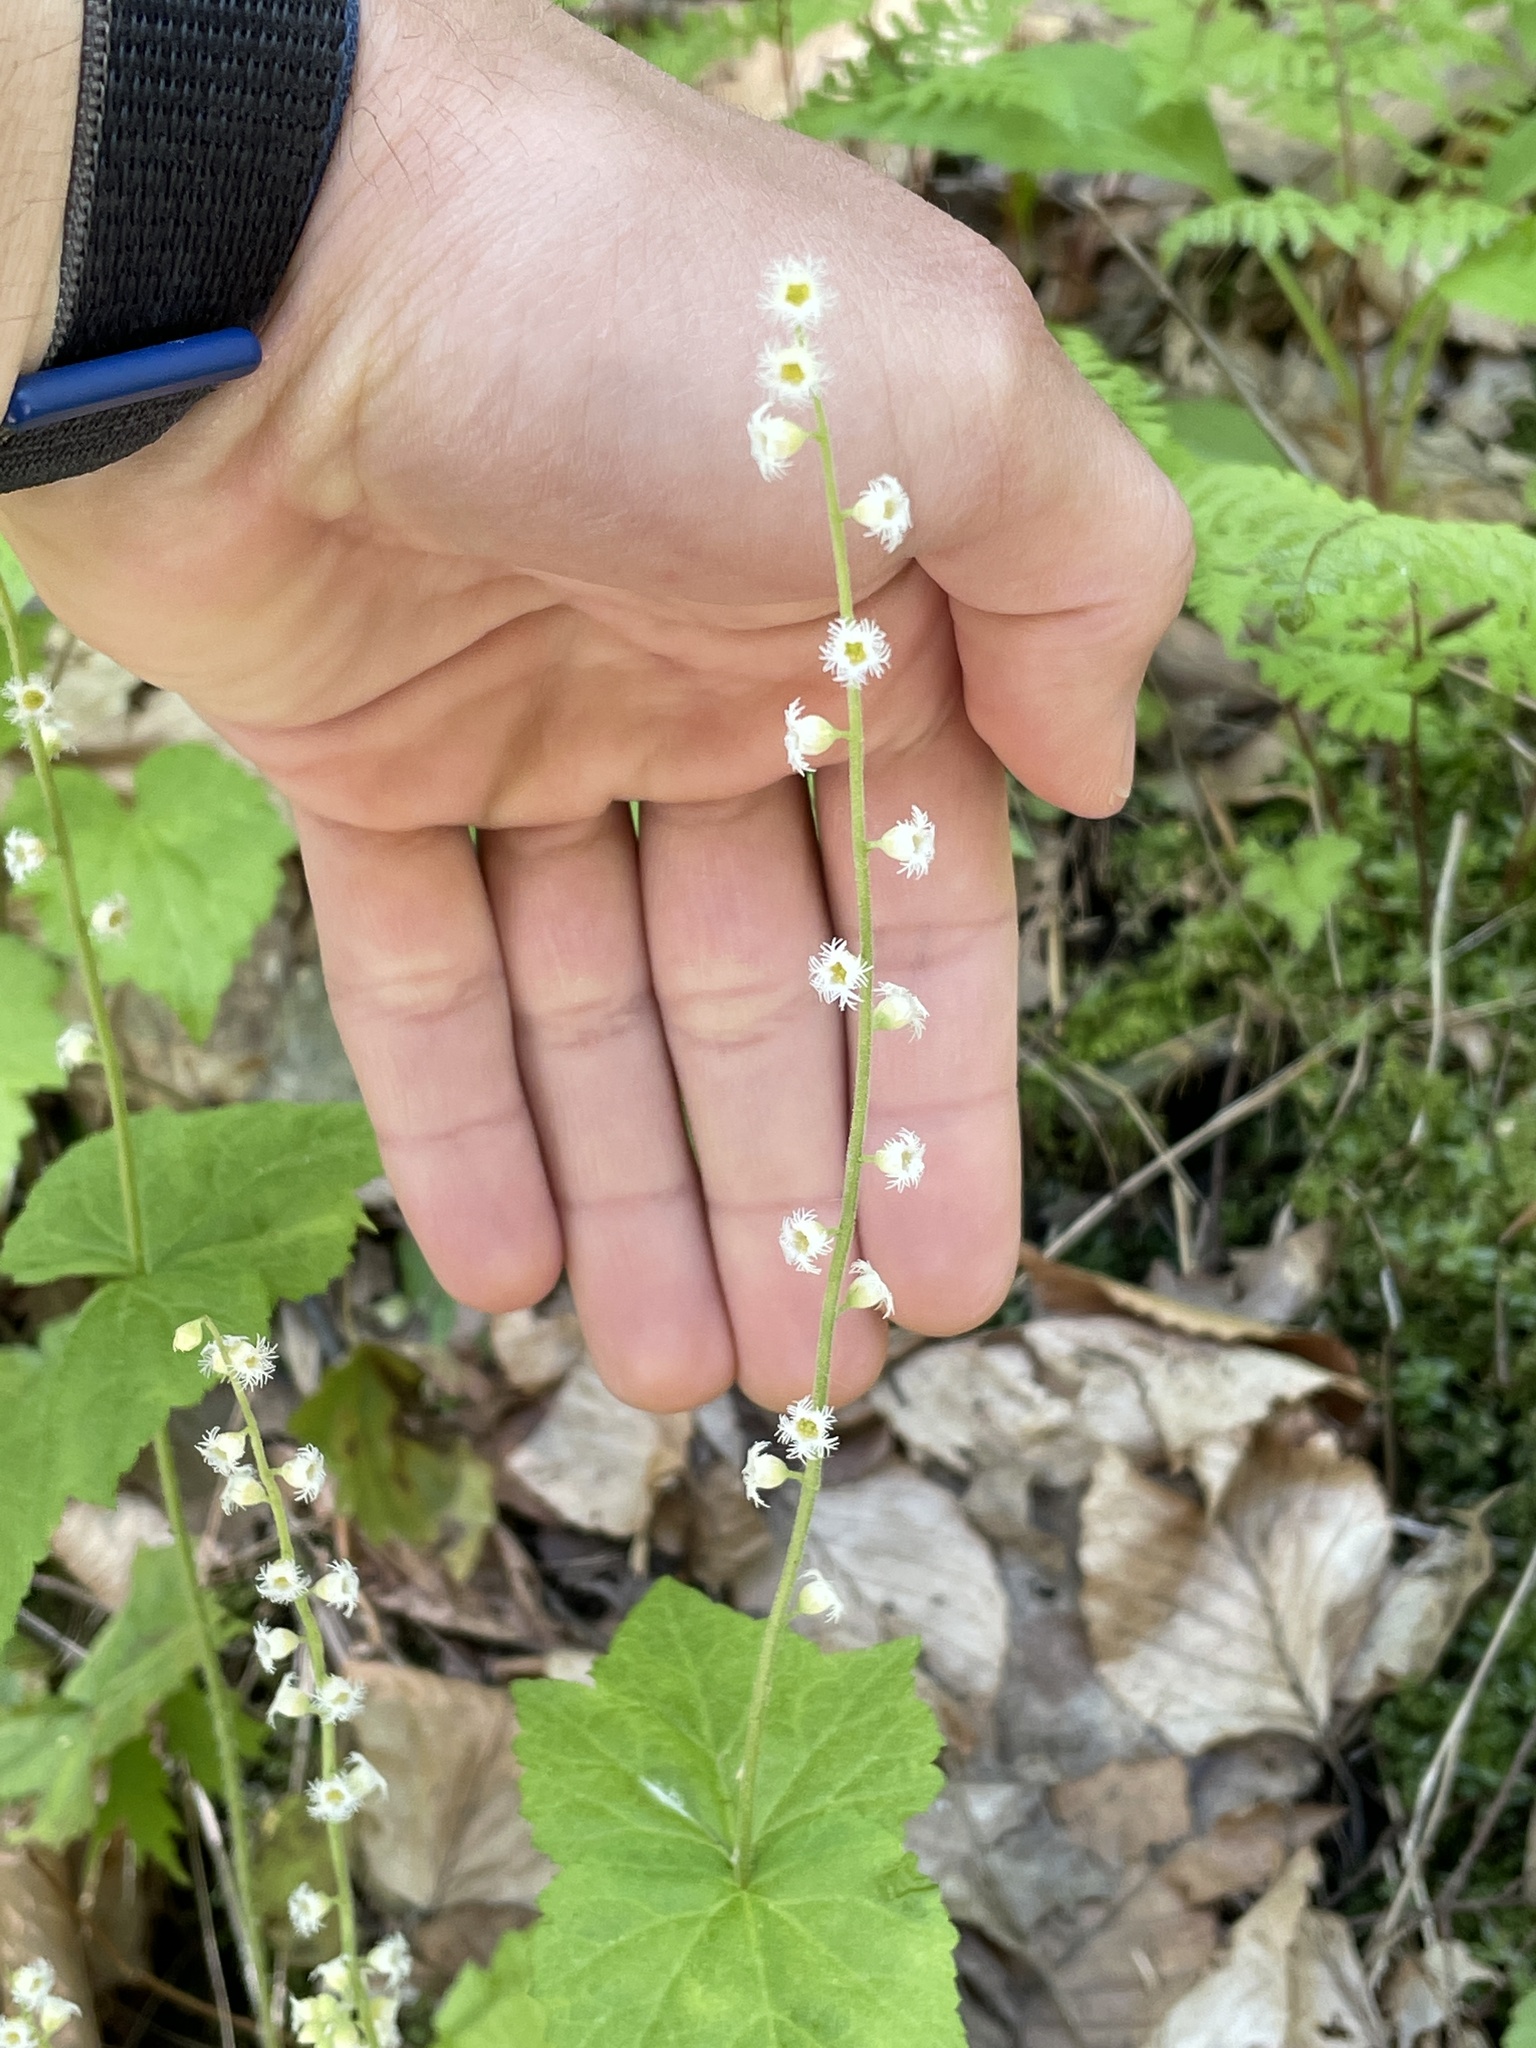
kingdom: Plantae
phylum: Tracheophyta
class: Magnoliopsida
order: Saxifragales
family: Saxifragaceae
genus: Mitella
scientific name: Mitella diphylla
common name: Coolwort
